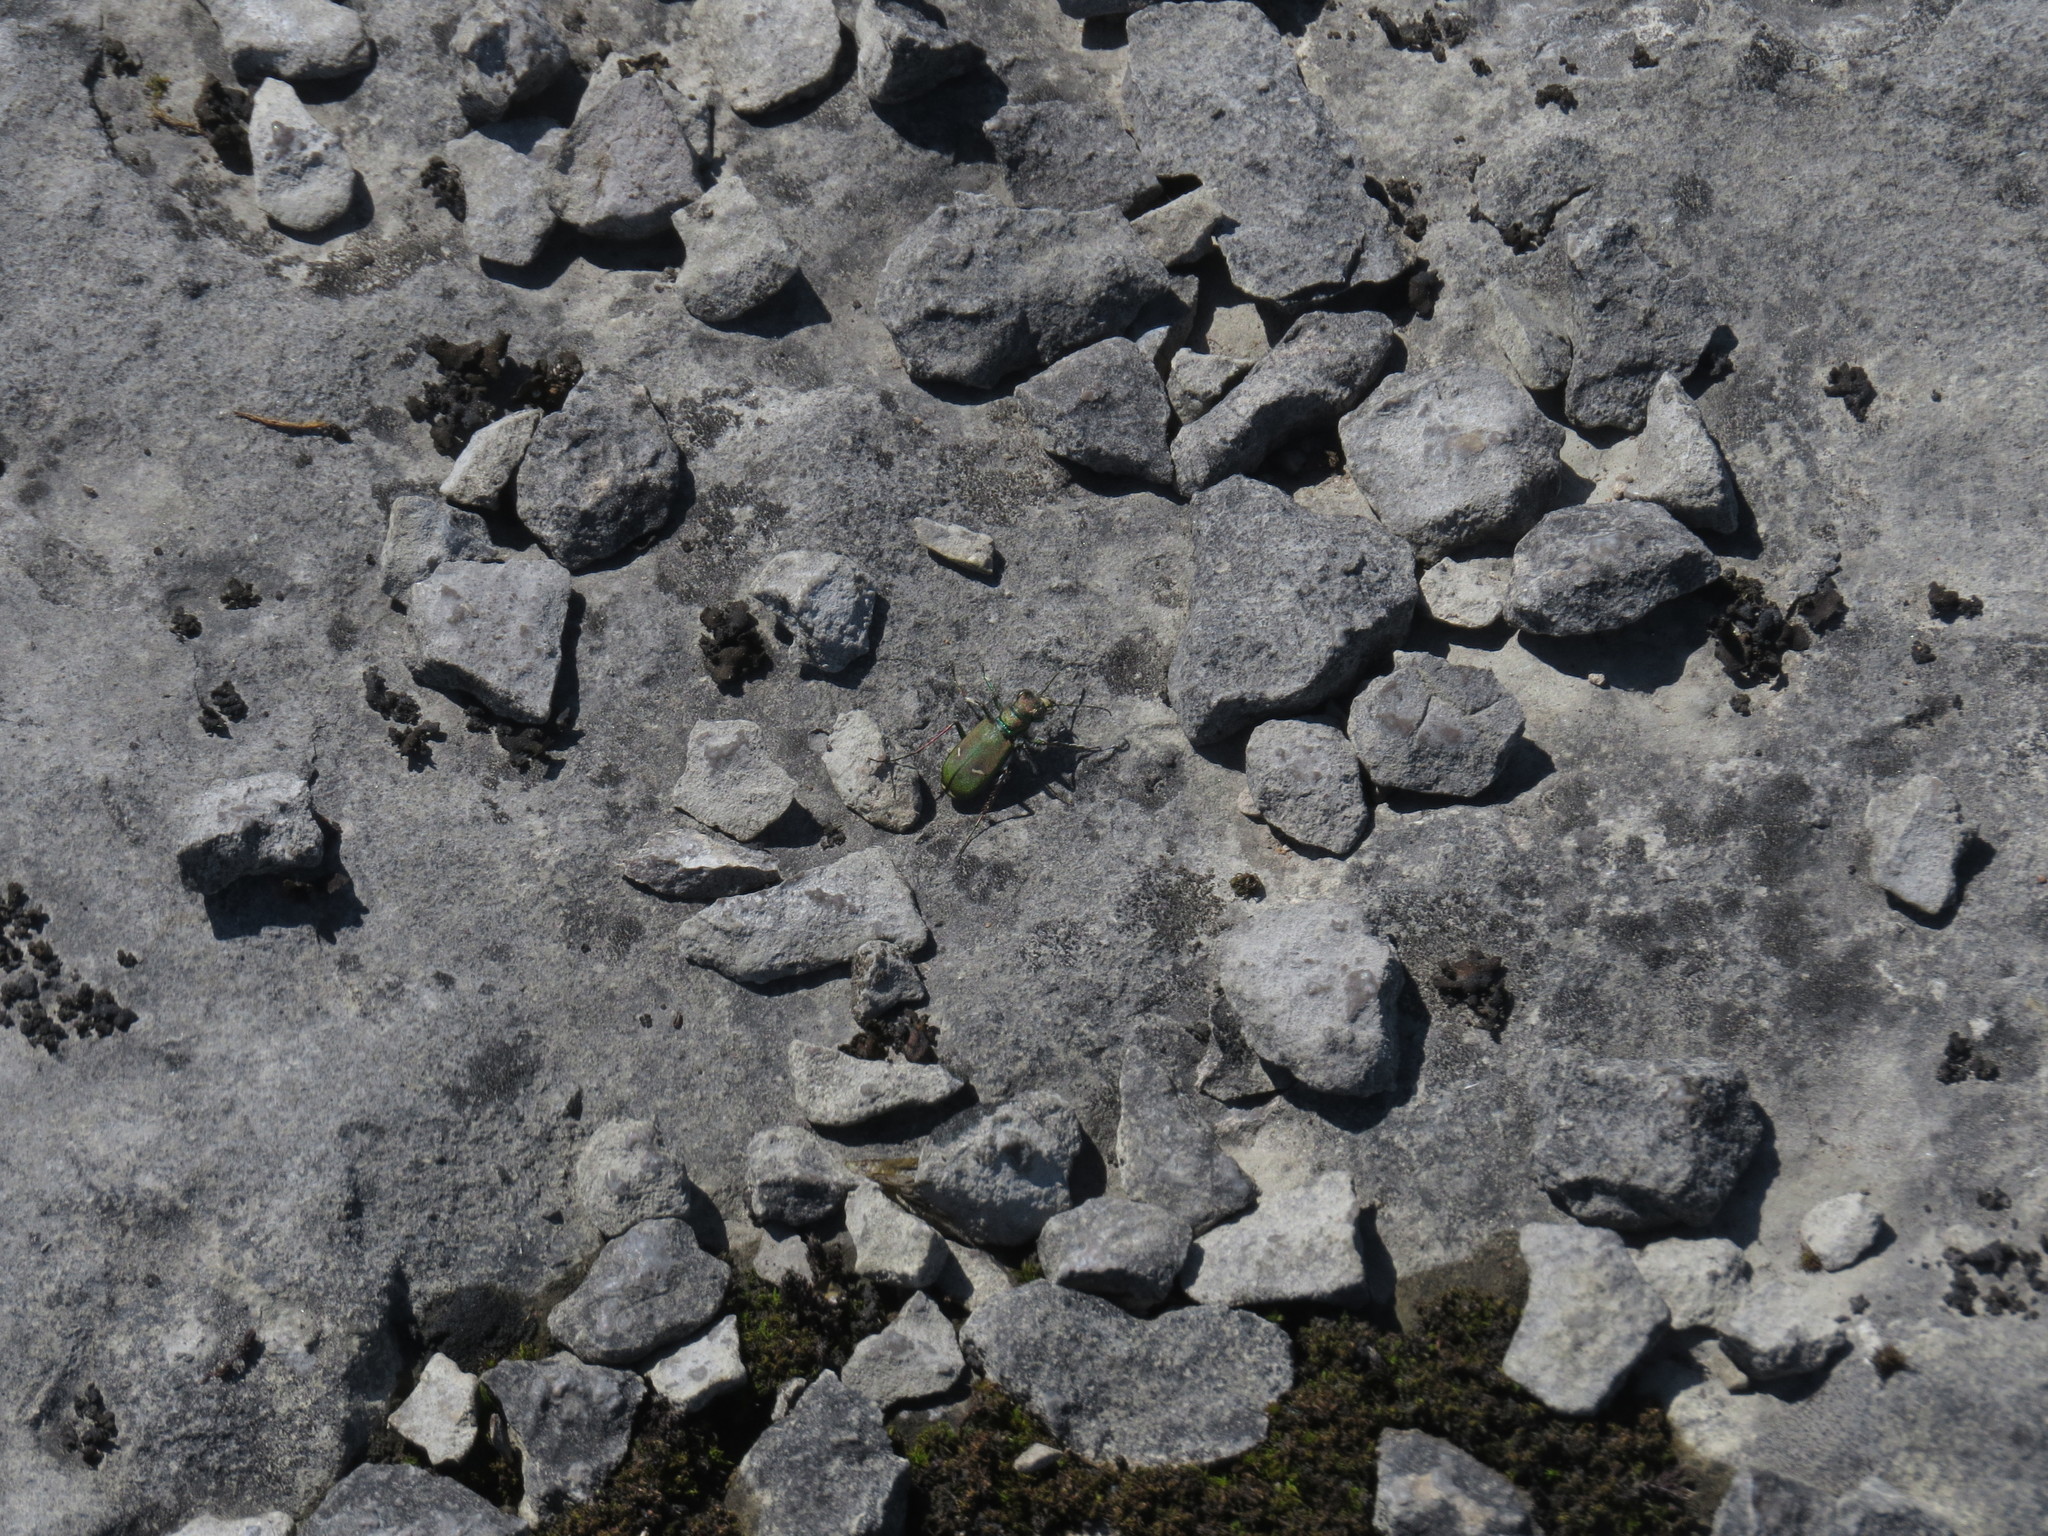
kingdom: Animalia
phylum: Arthropoda
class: Insecta
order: Coleoptera
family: Carabidae
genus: Cicindela
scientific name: Cicindela purpurea
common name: Cow path tiger beetle
